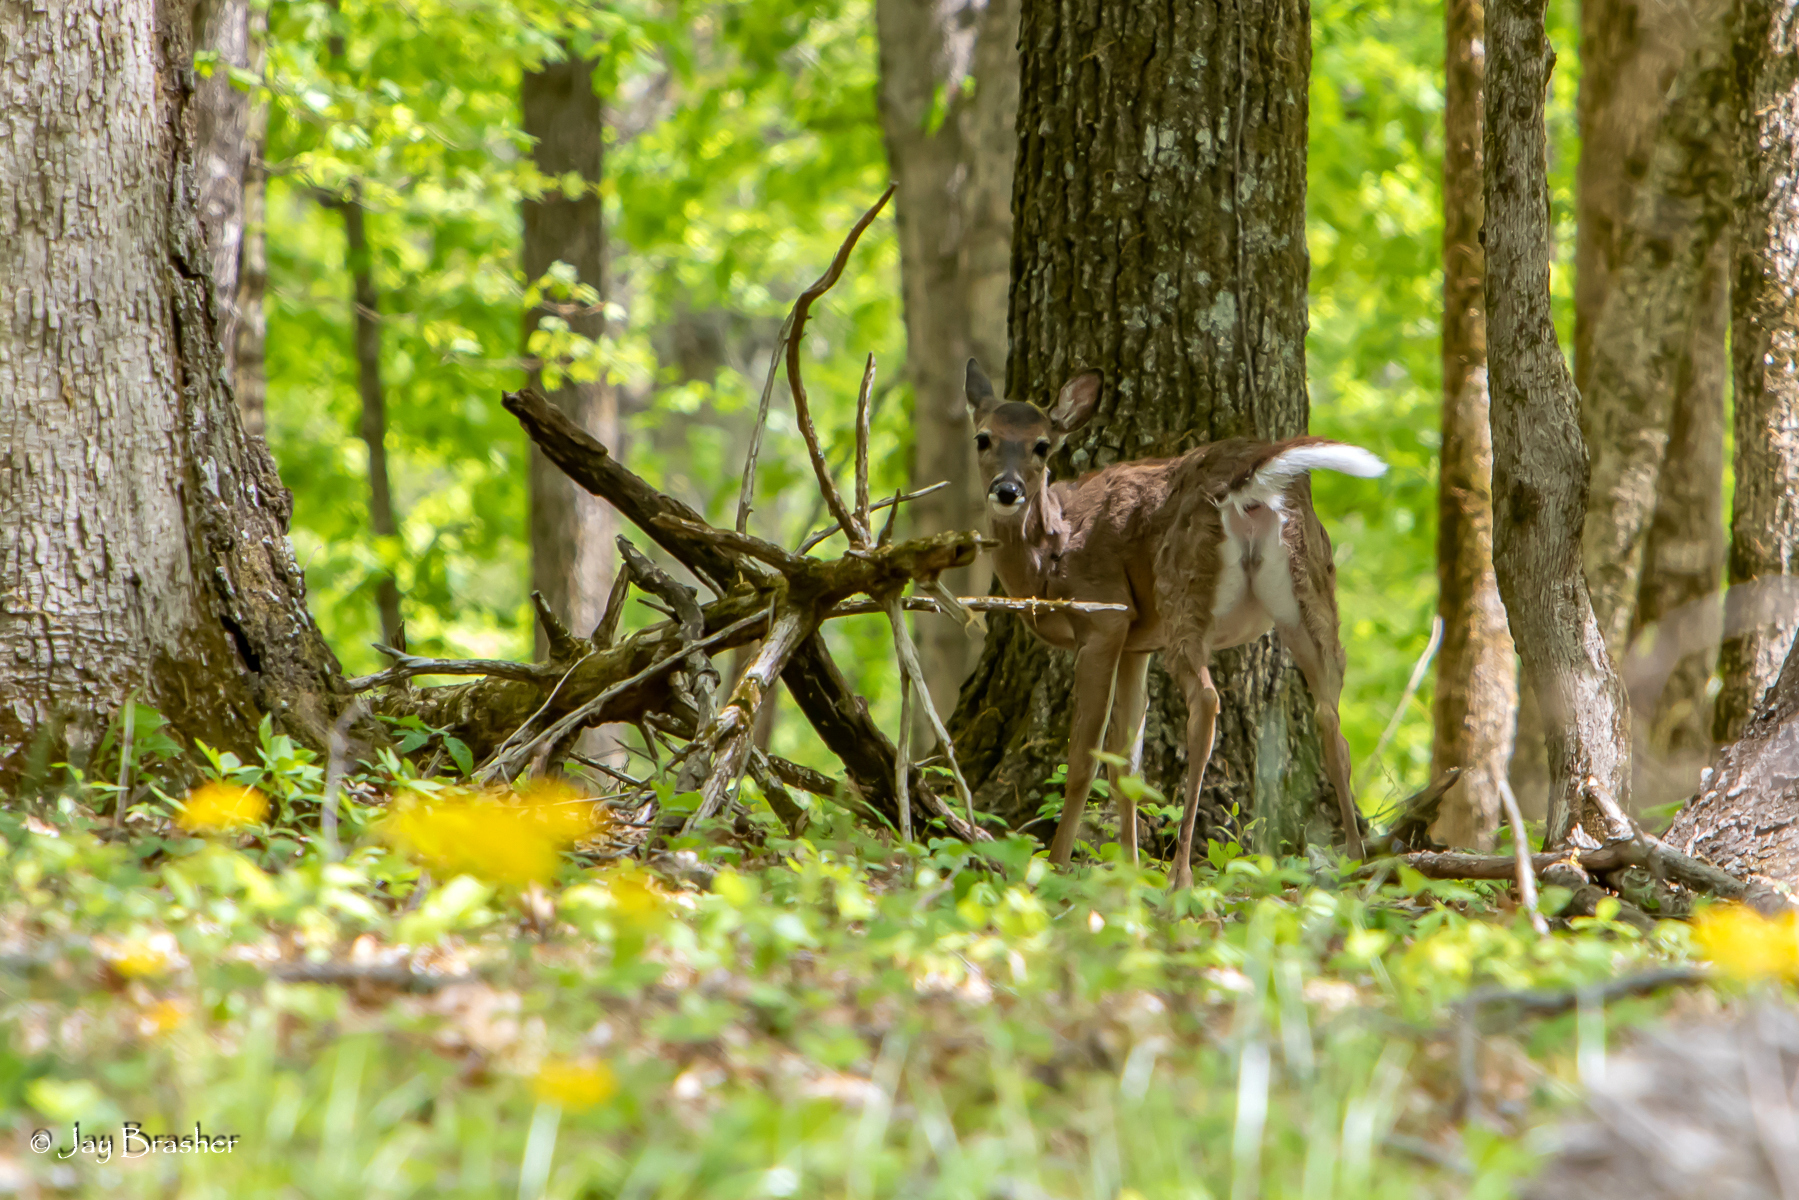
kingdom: Animalia
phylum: Chordata
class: Mammalia
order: Artiodactyla
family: Cervidae
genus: Odocoileus
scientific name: Odocoileus virginianus
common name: White-tailed deer
